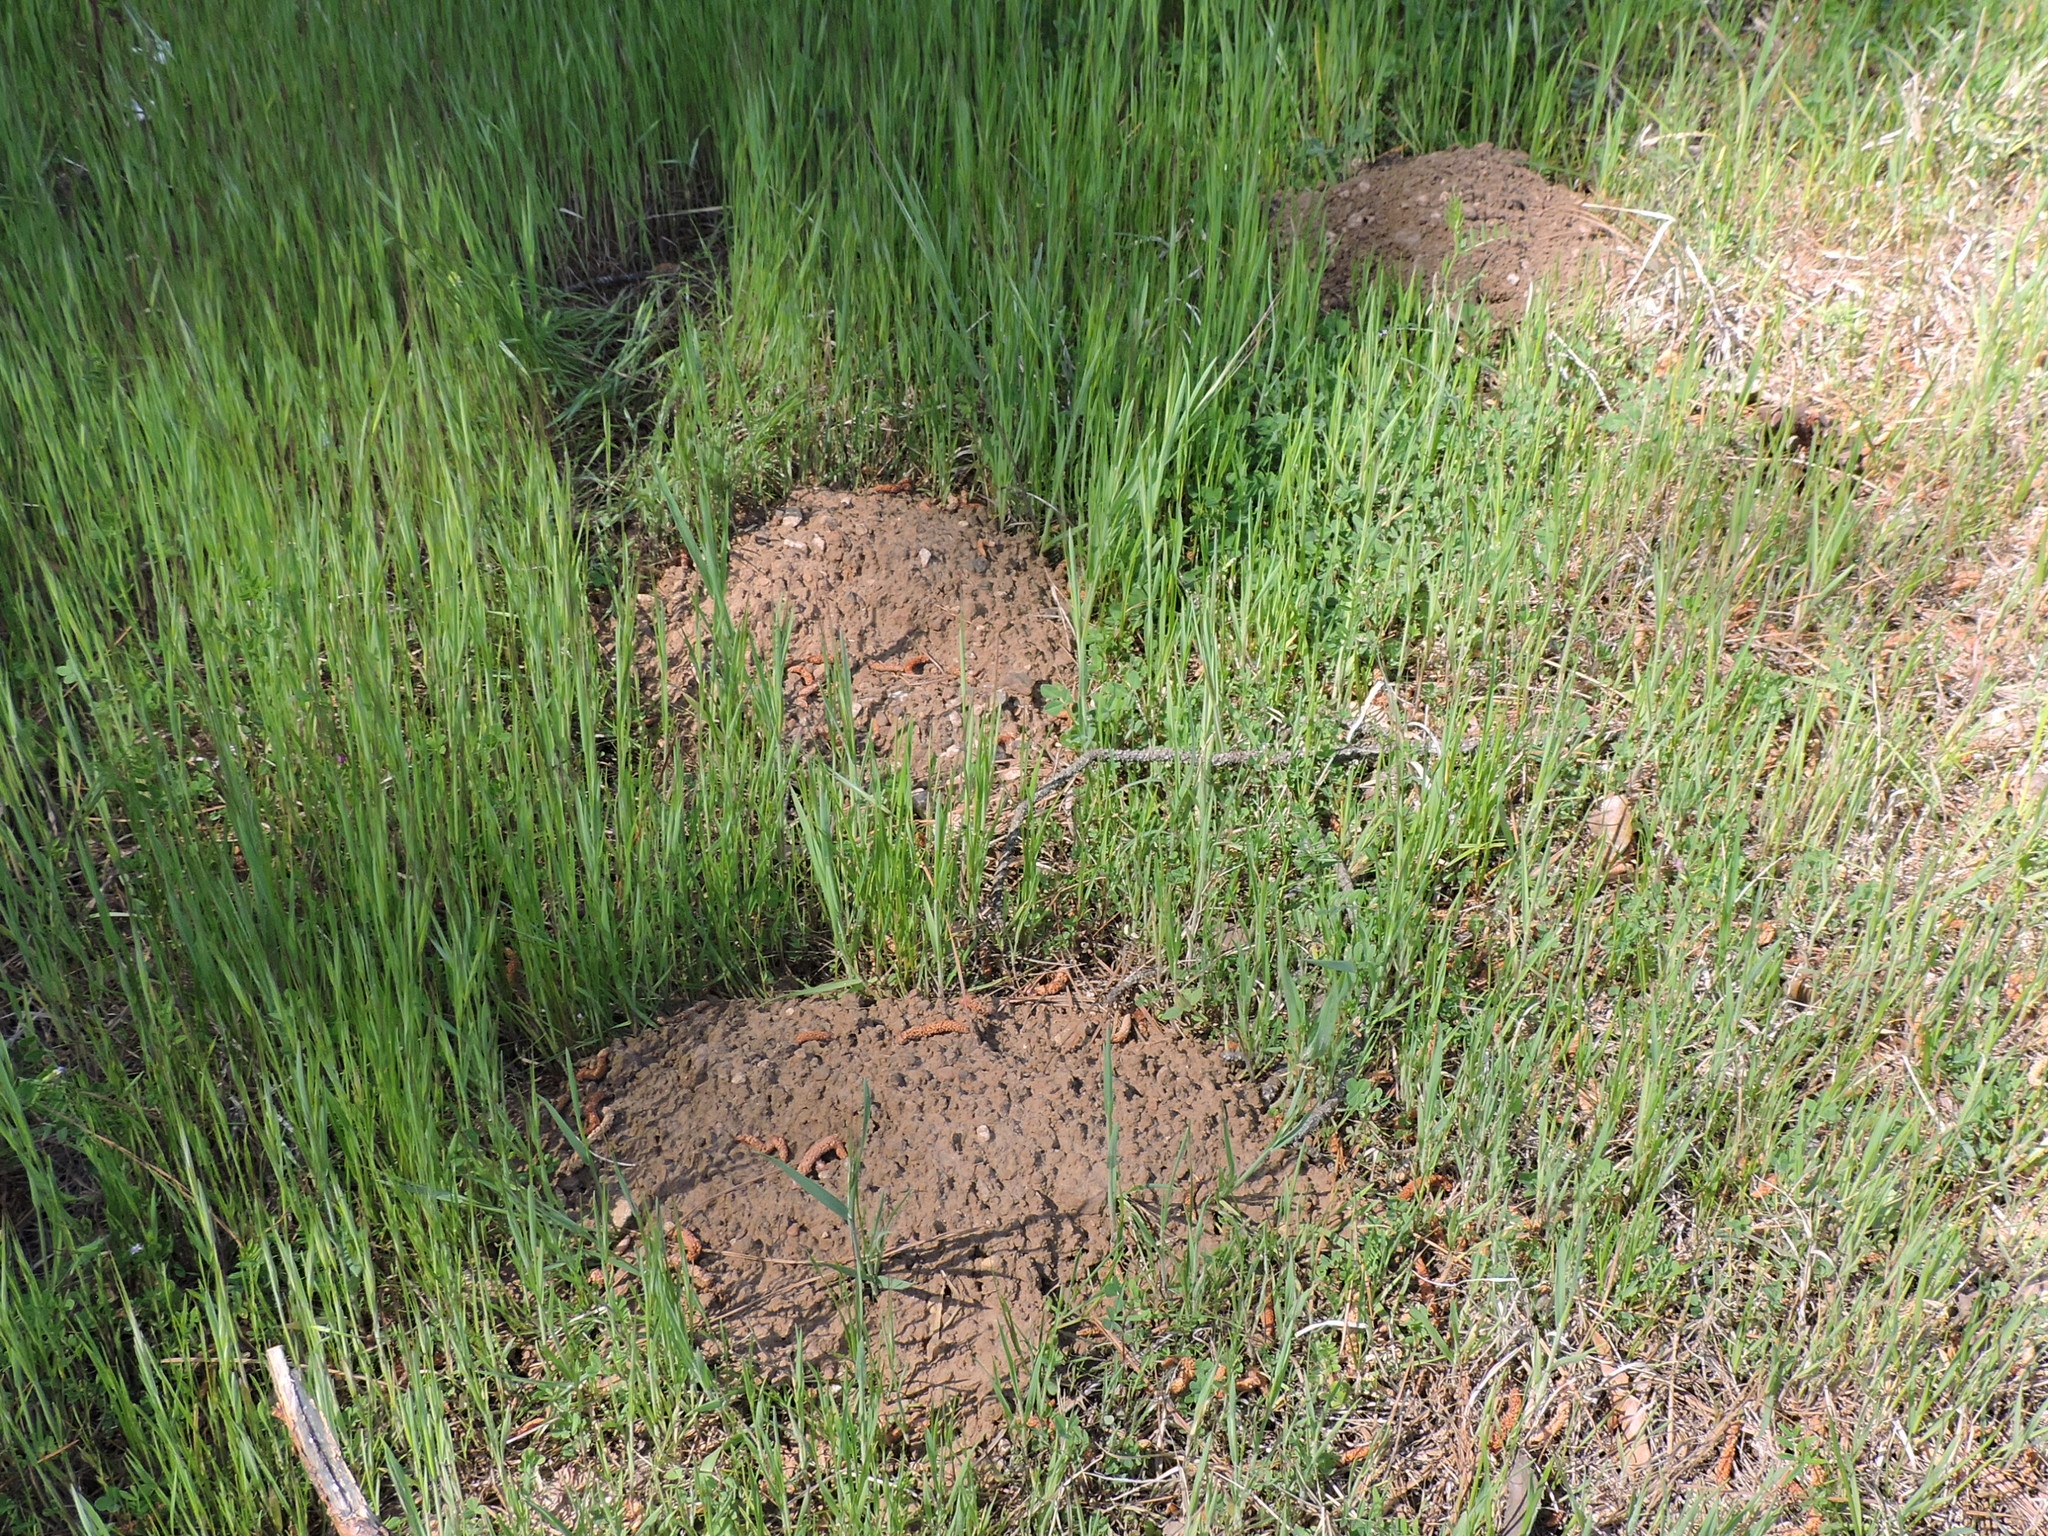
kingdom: Animalia
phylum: Chordata
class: Mammalia
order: Rodentia
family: Geomyidae
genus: Geomys
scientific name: Geomys breviceps
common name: Baird's pocket gopher
